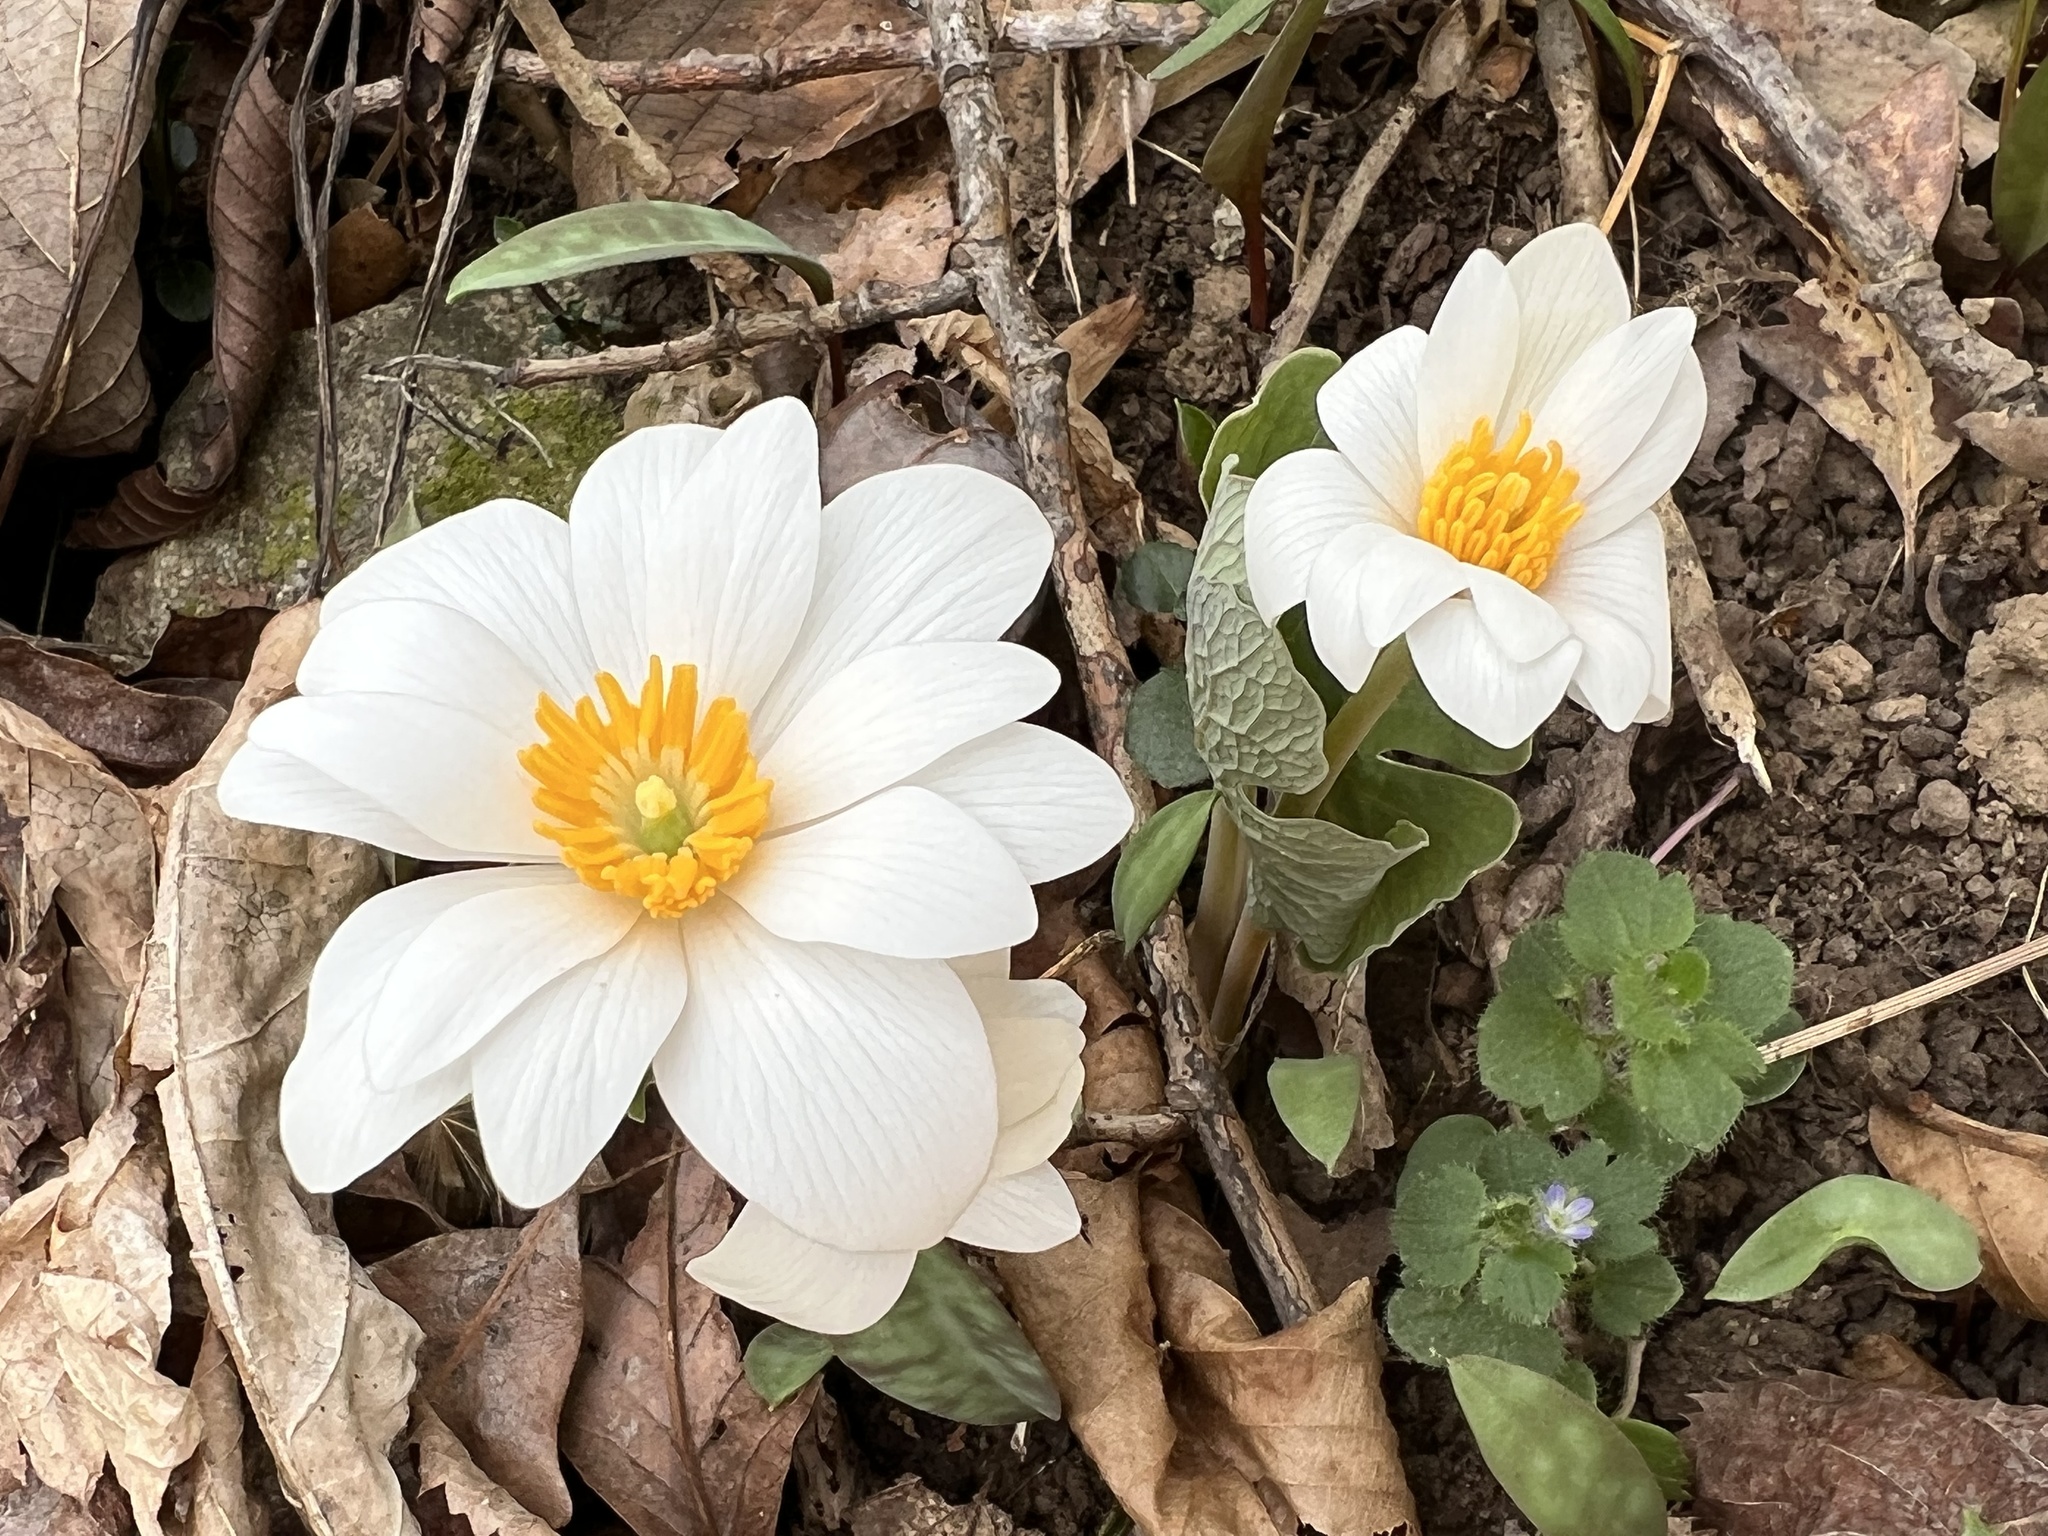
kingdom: Plantae
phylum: Tracheophyta
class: Magnoliopsida
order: Ranunculales
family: Papaveraceae
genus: Sanguinaria
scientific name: Sanguinaria canadensis
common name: Bloodroot
